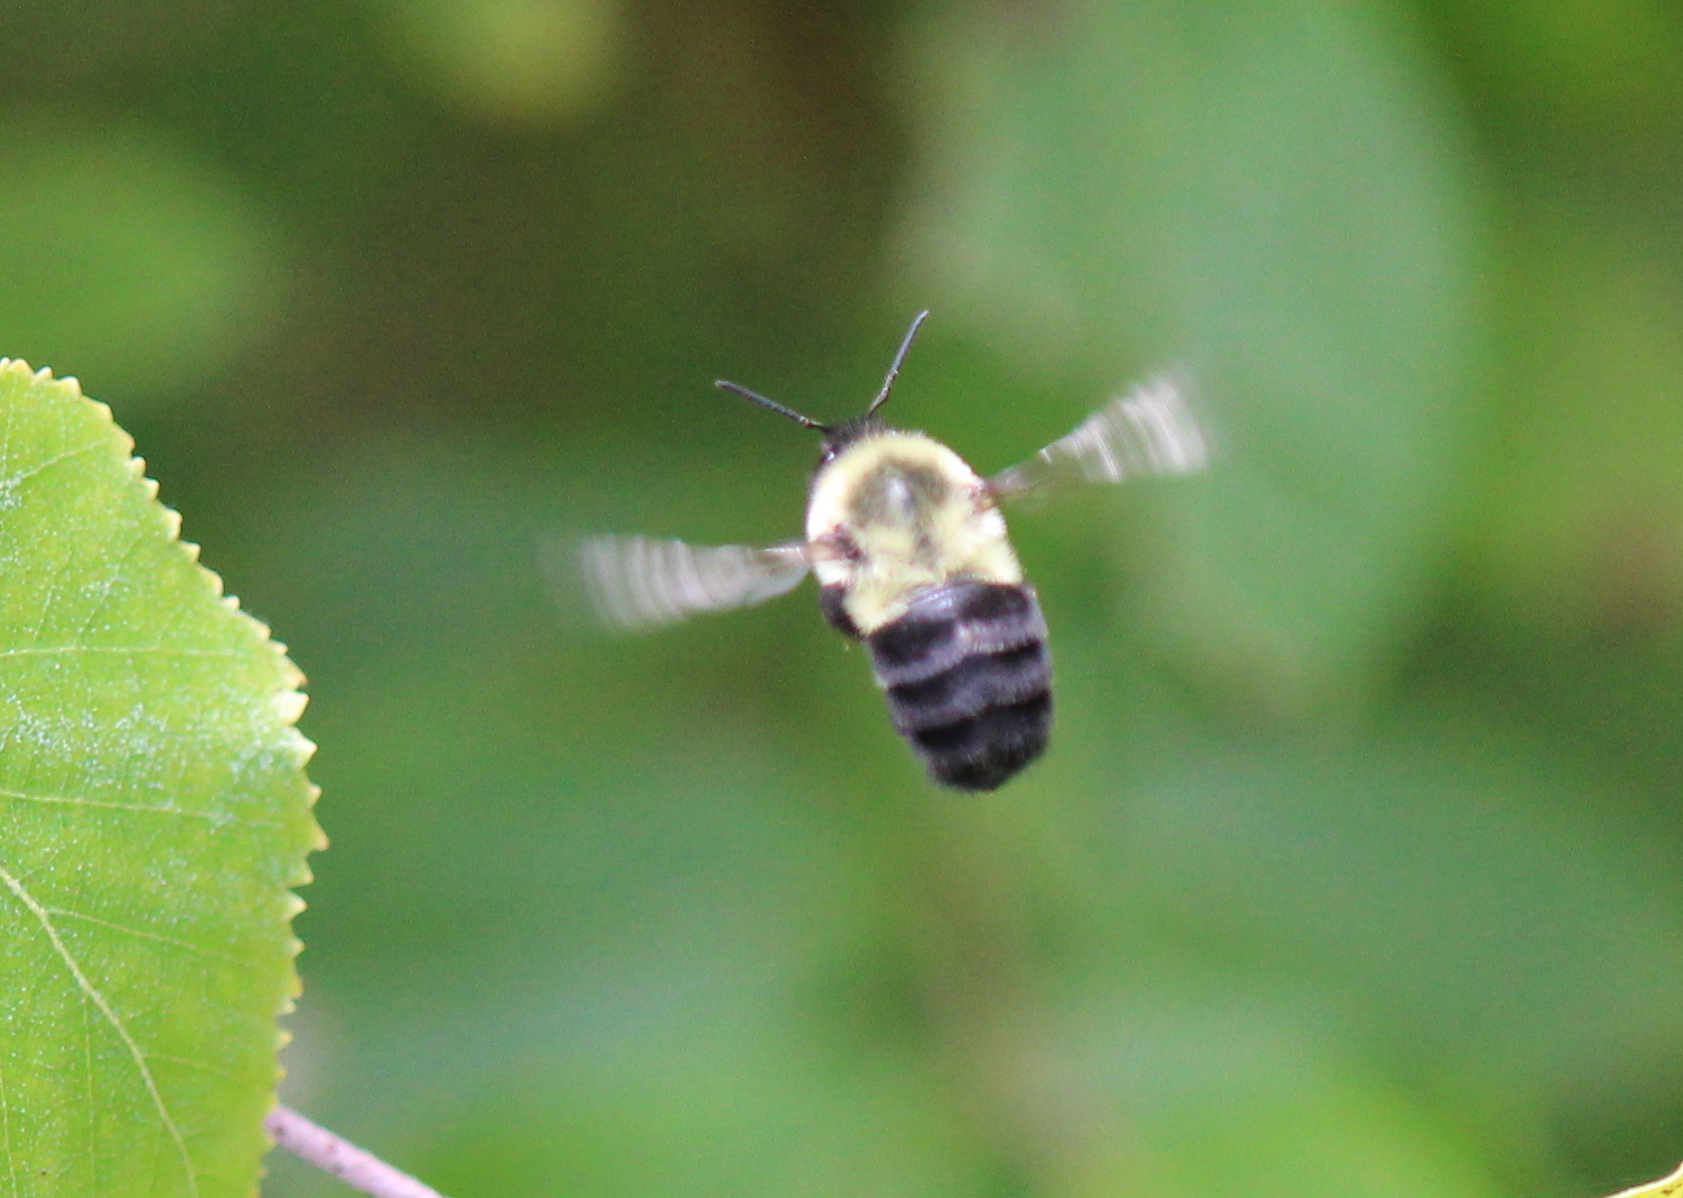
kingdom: Animalia
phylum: Arthropoda
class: Insecta
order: Hymenoptera
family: Apidae
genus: Bombus
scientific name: Bombus impatiens
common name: Common eastern bumble bee
